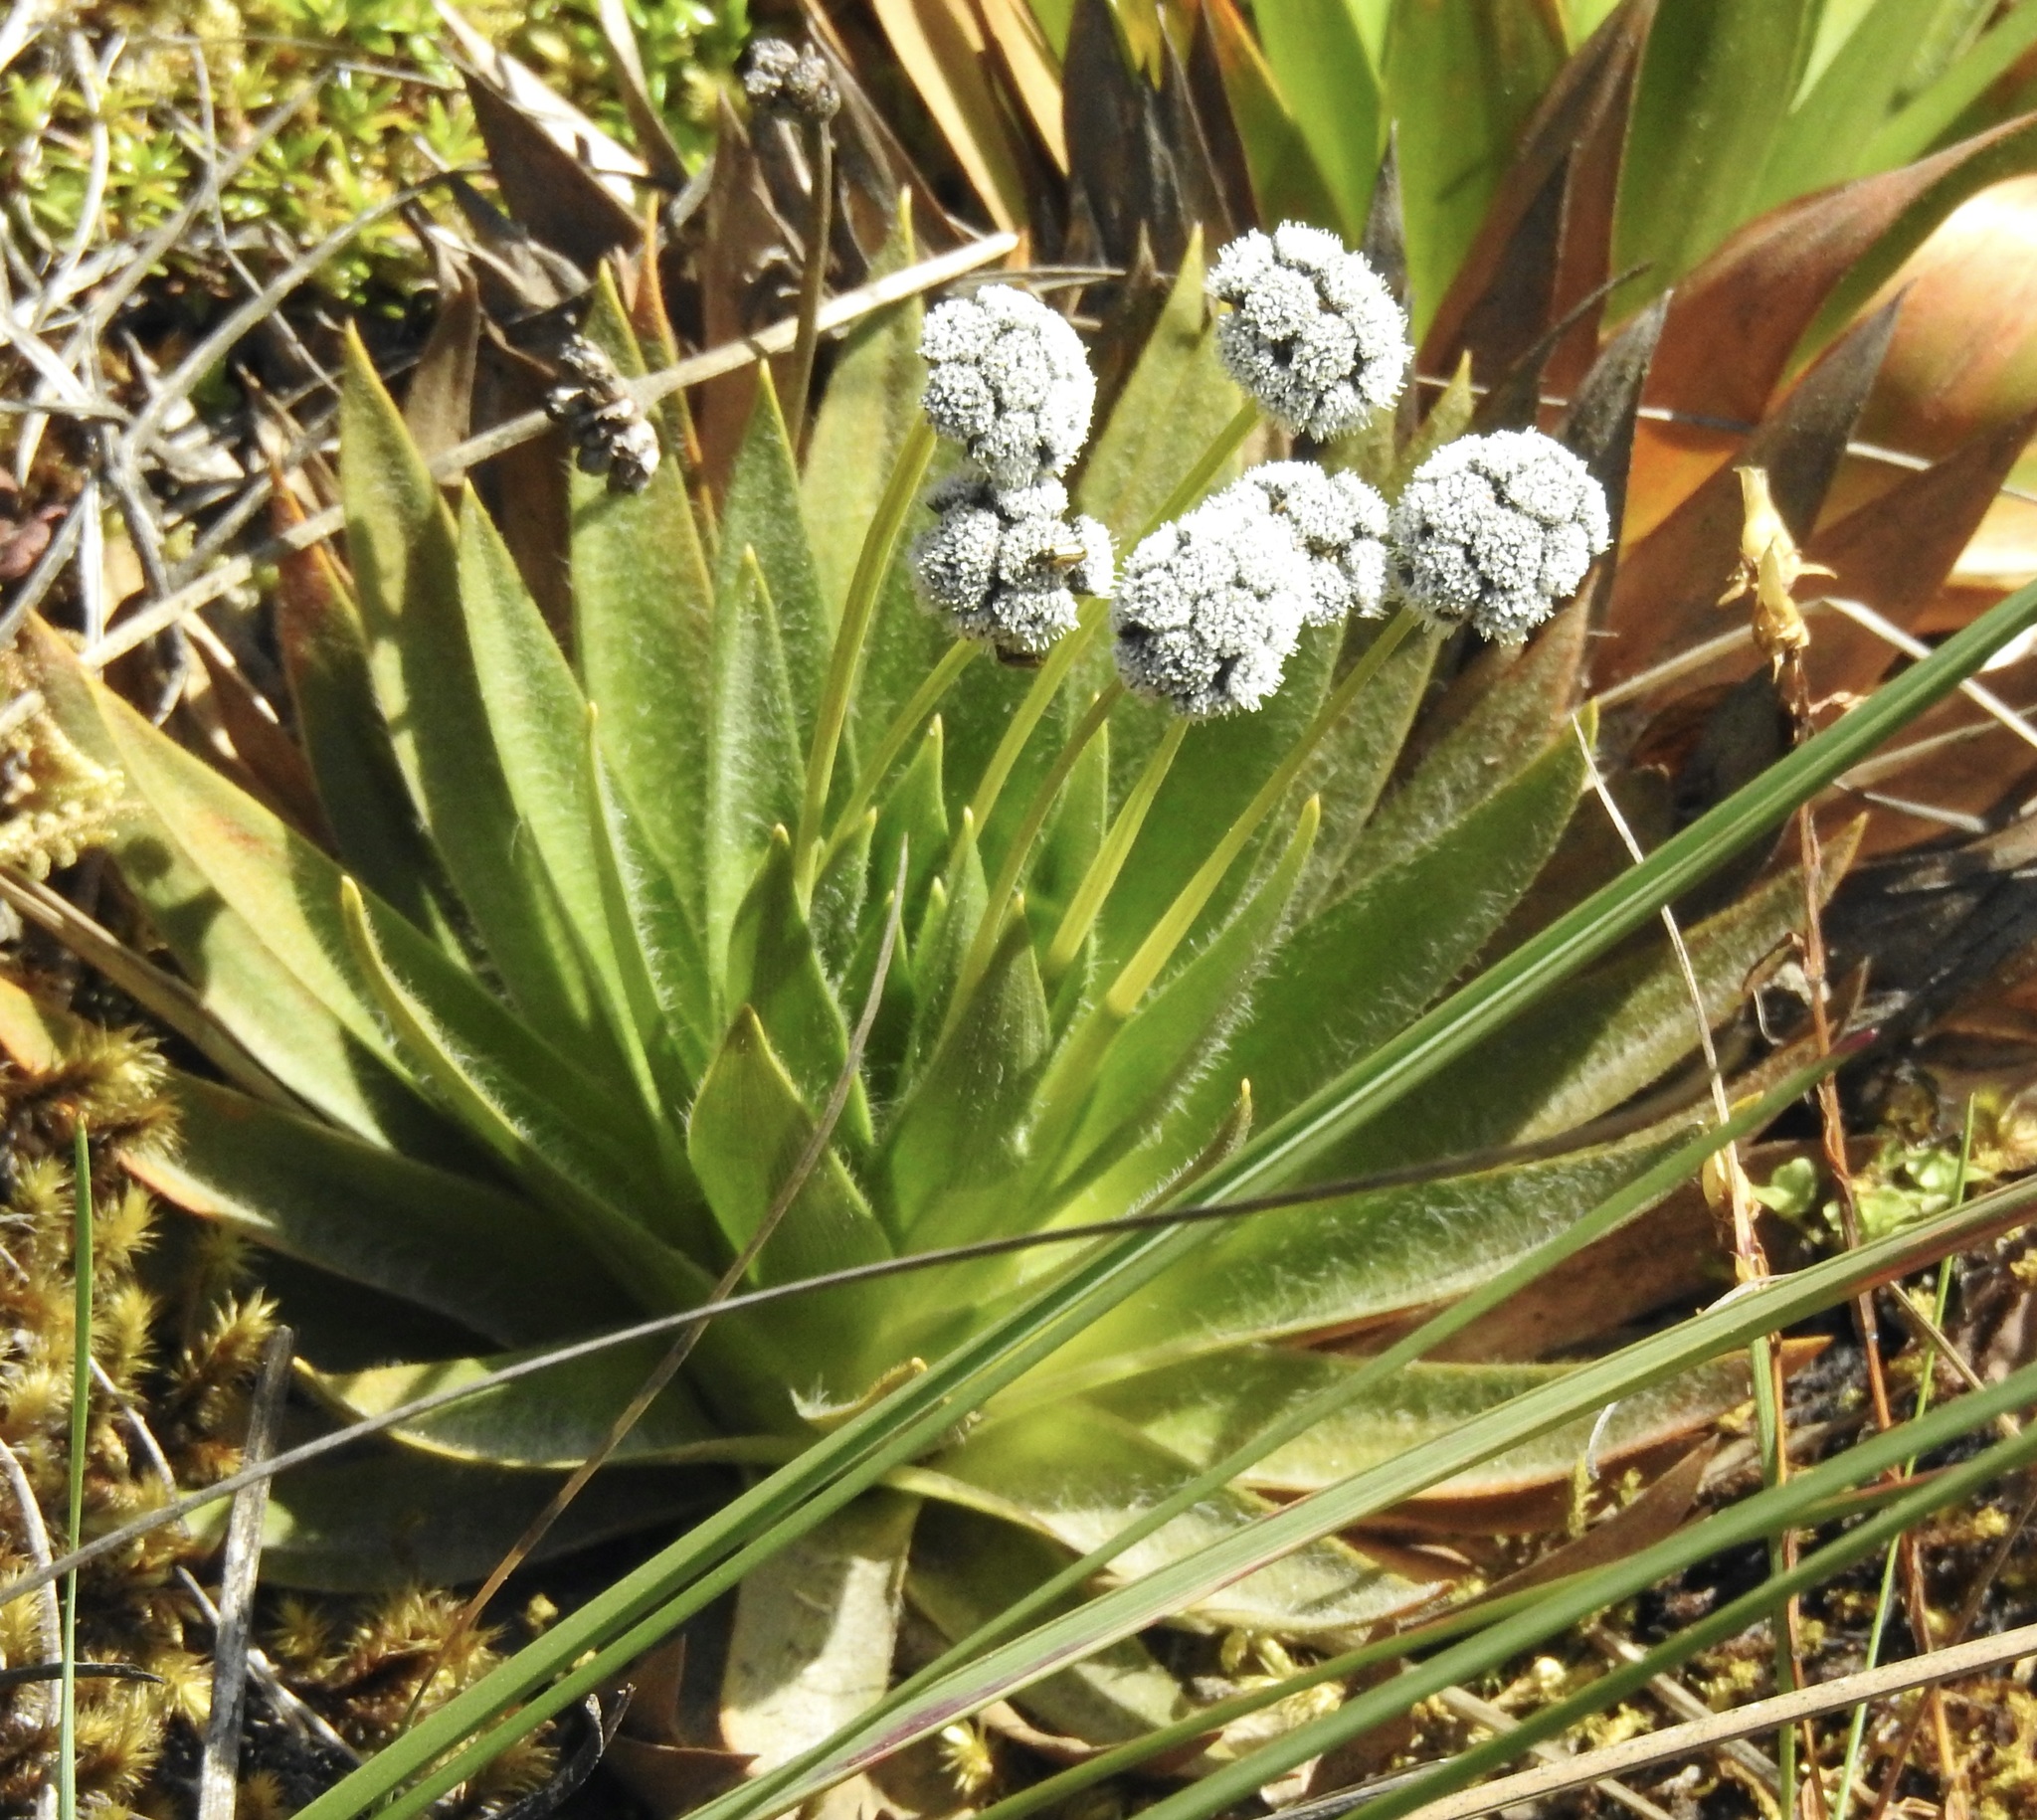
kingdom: Plantae
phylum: Tracheophyta
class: Liliopsida
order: Poales
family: Eriocaulaceae
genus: Paepalanthus
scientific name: Paepalanthus alpinus
